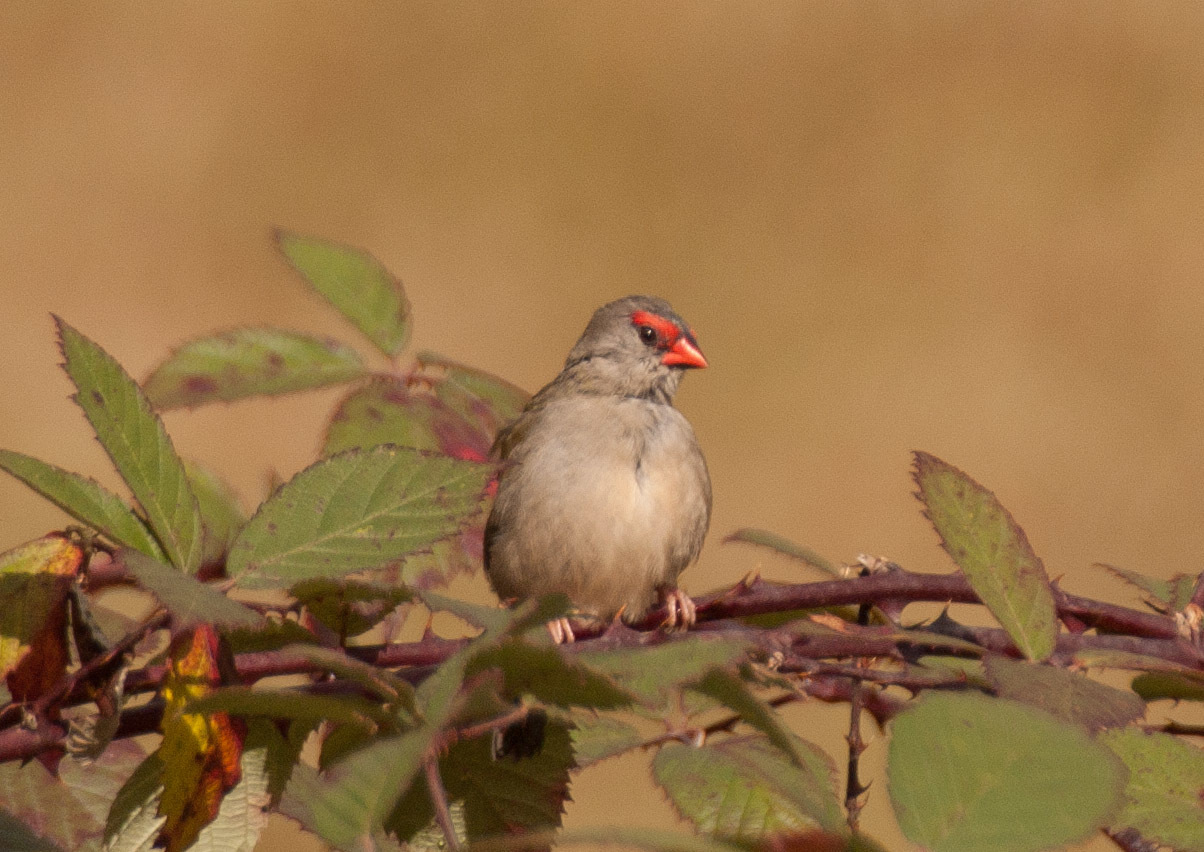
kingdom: Animalia
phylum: Chordata
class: Aves
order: Passeriformes
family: Estrildidae
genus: Neochmia
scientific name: Neochmia temporalis
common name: Red-browed finch
